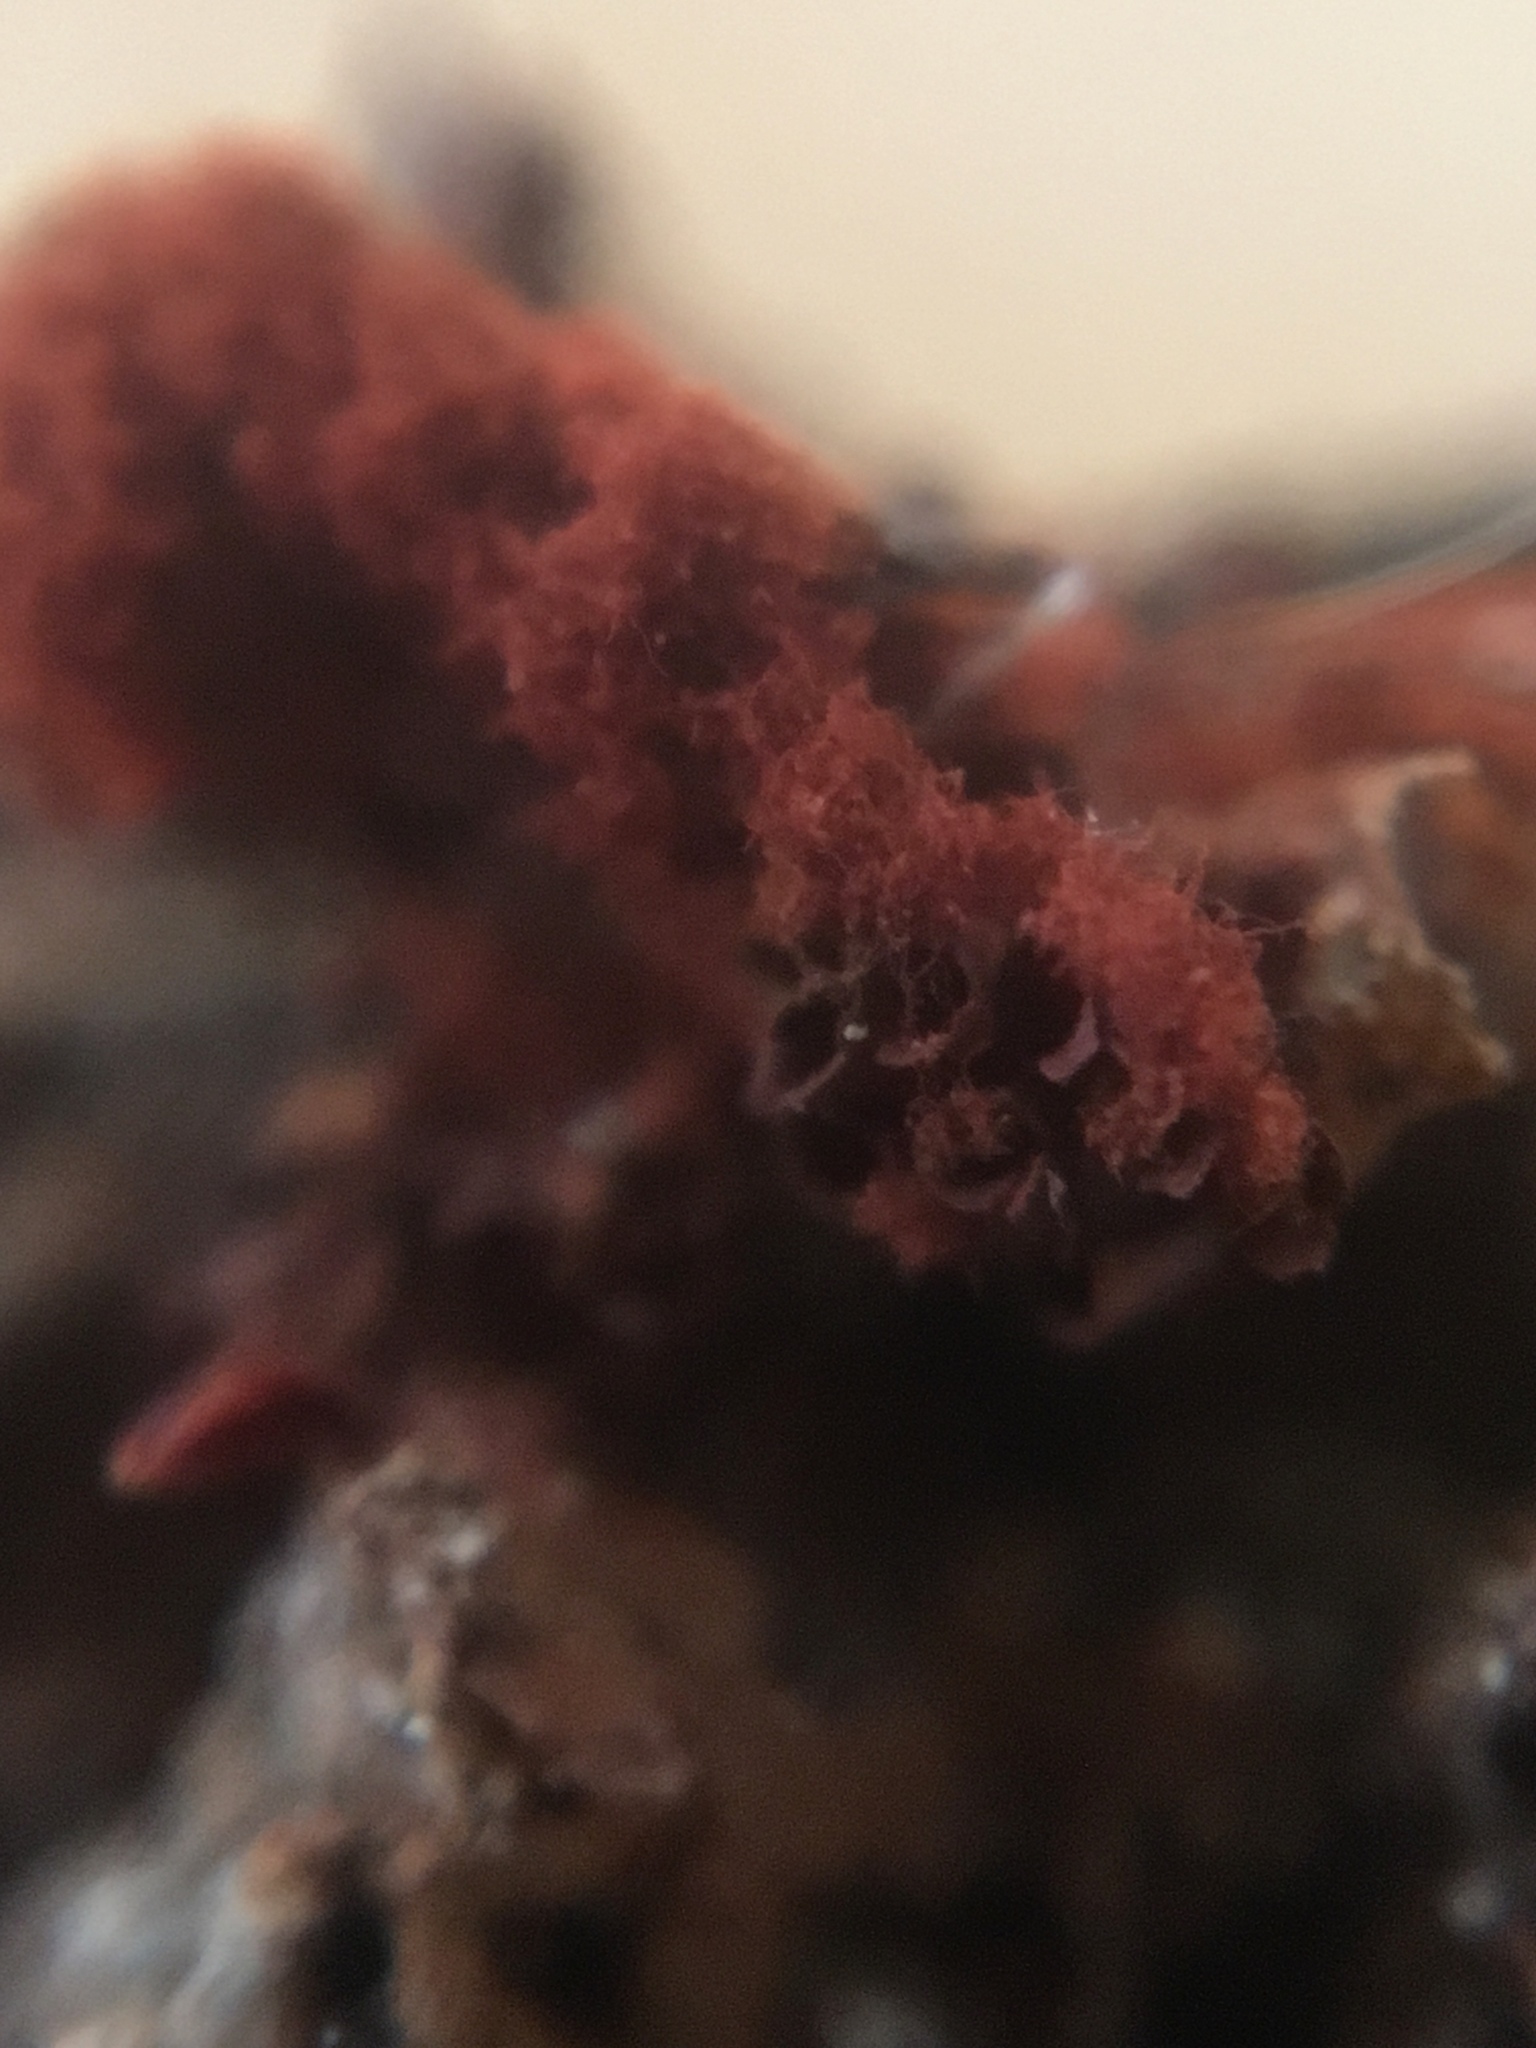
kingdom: Protozoa
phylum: Mycetozoa
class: Myxomycetes
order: Trichiales
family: Trichiaceae
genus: Metatrichia
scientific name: Metatrichia vesparia
